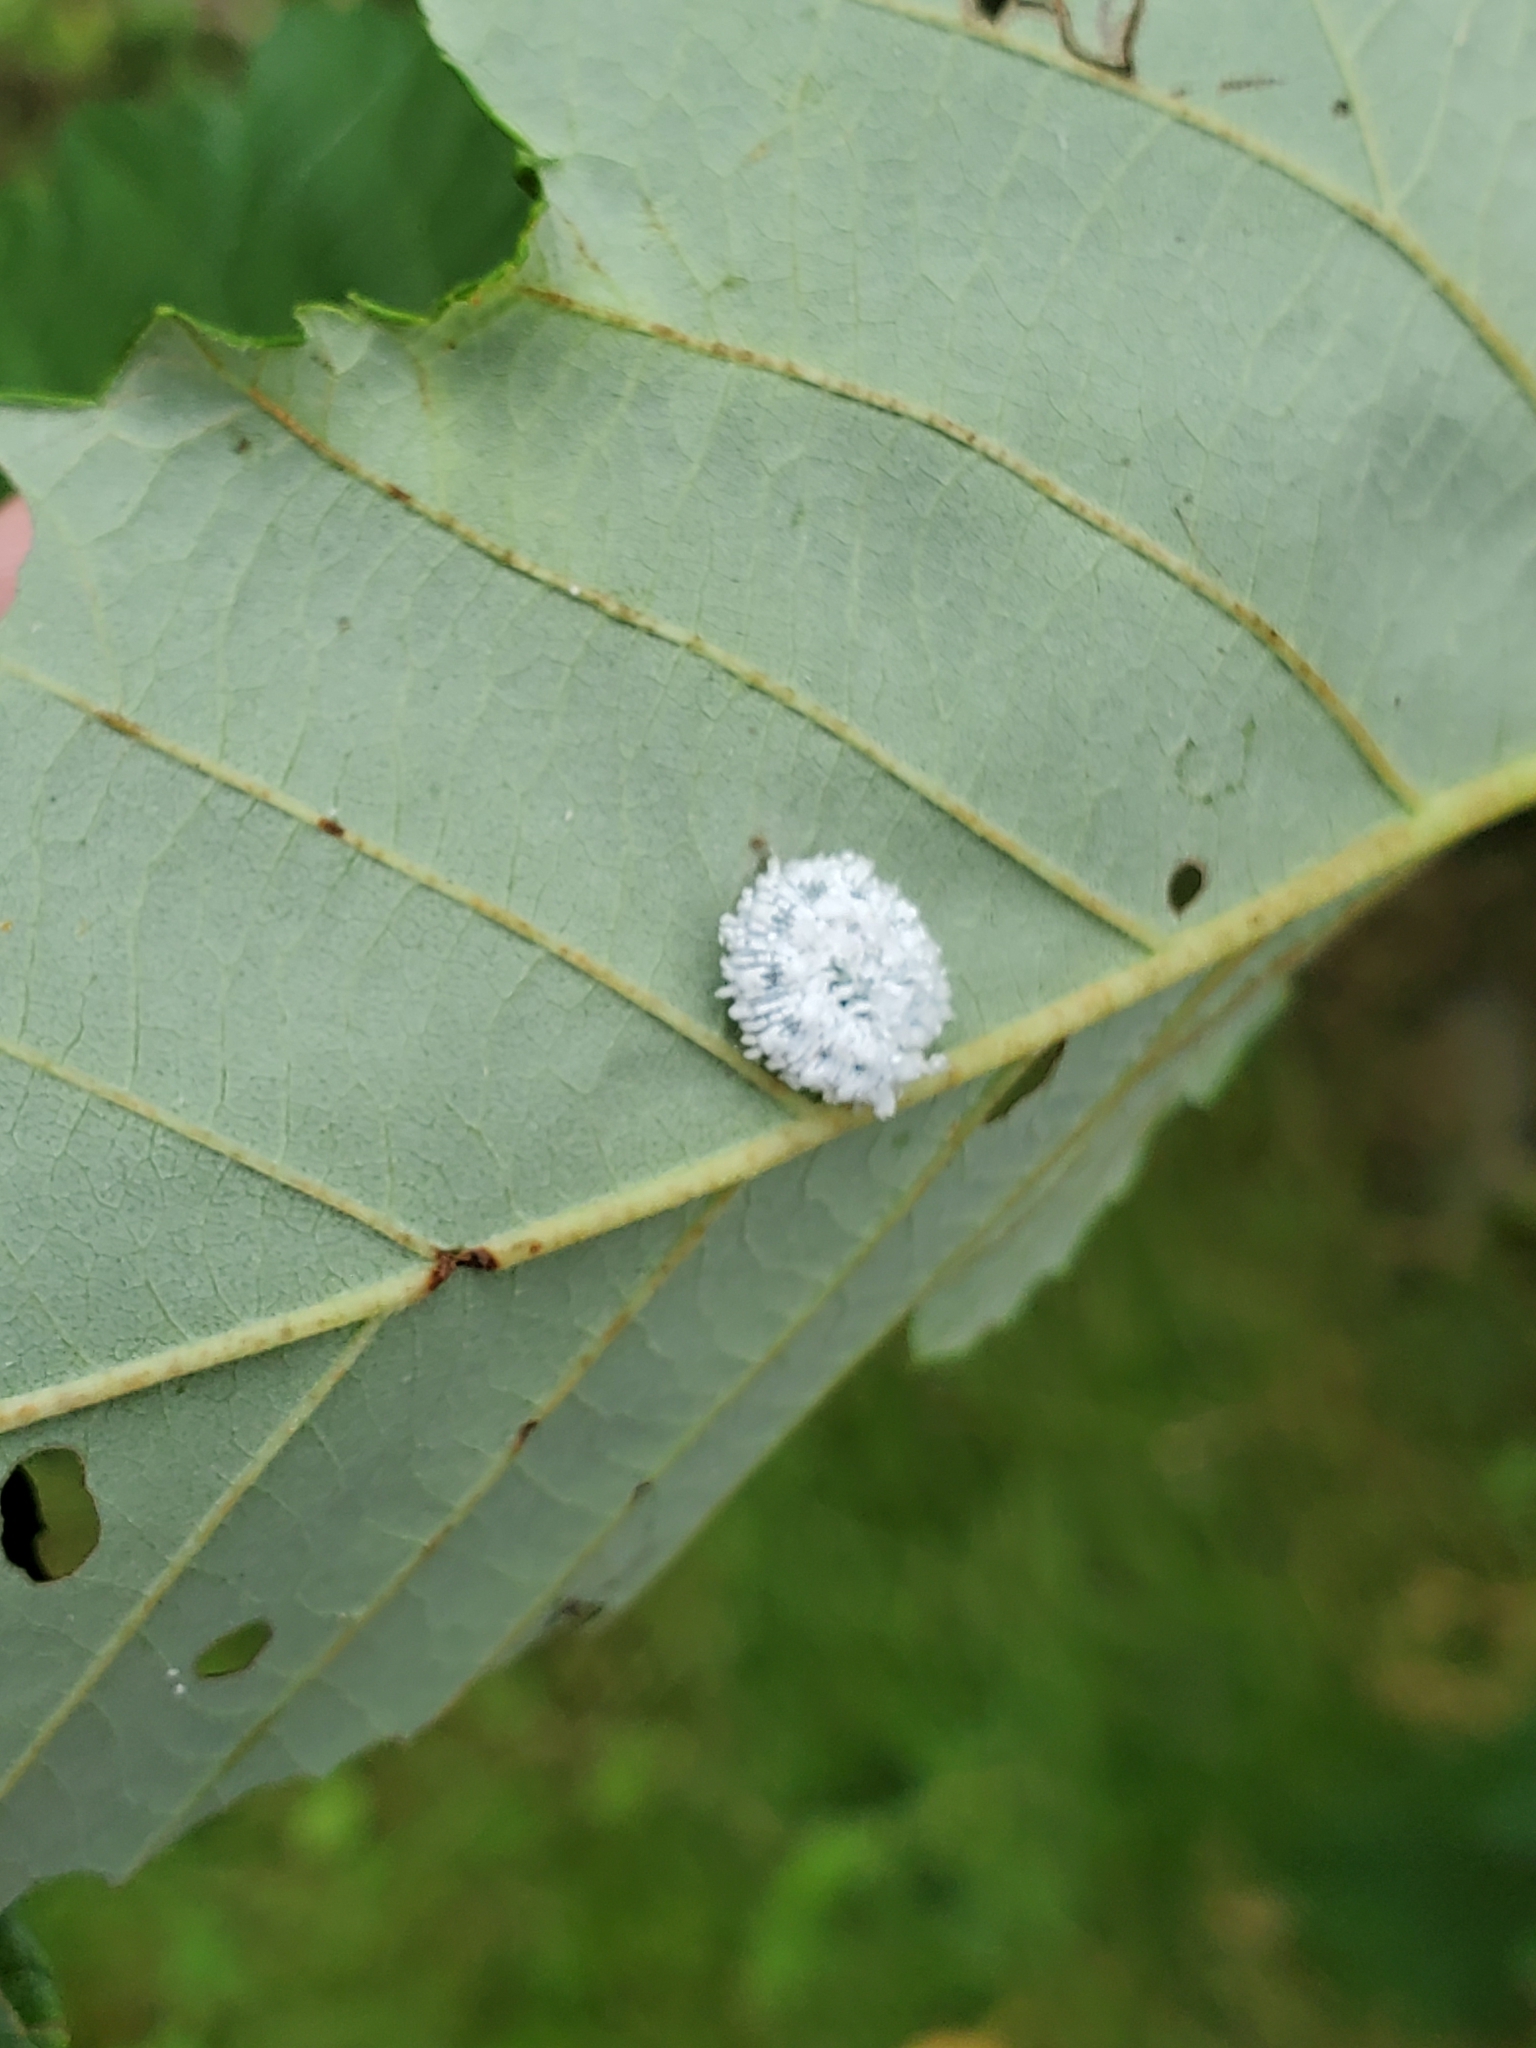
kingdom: Animalia
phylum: Arthropoda
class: Insecta
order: Hymenoptera
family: Tenthredinidae
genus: Eriocampa
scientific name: Eriocampa ovata
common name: Alder wooly sawfly
